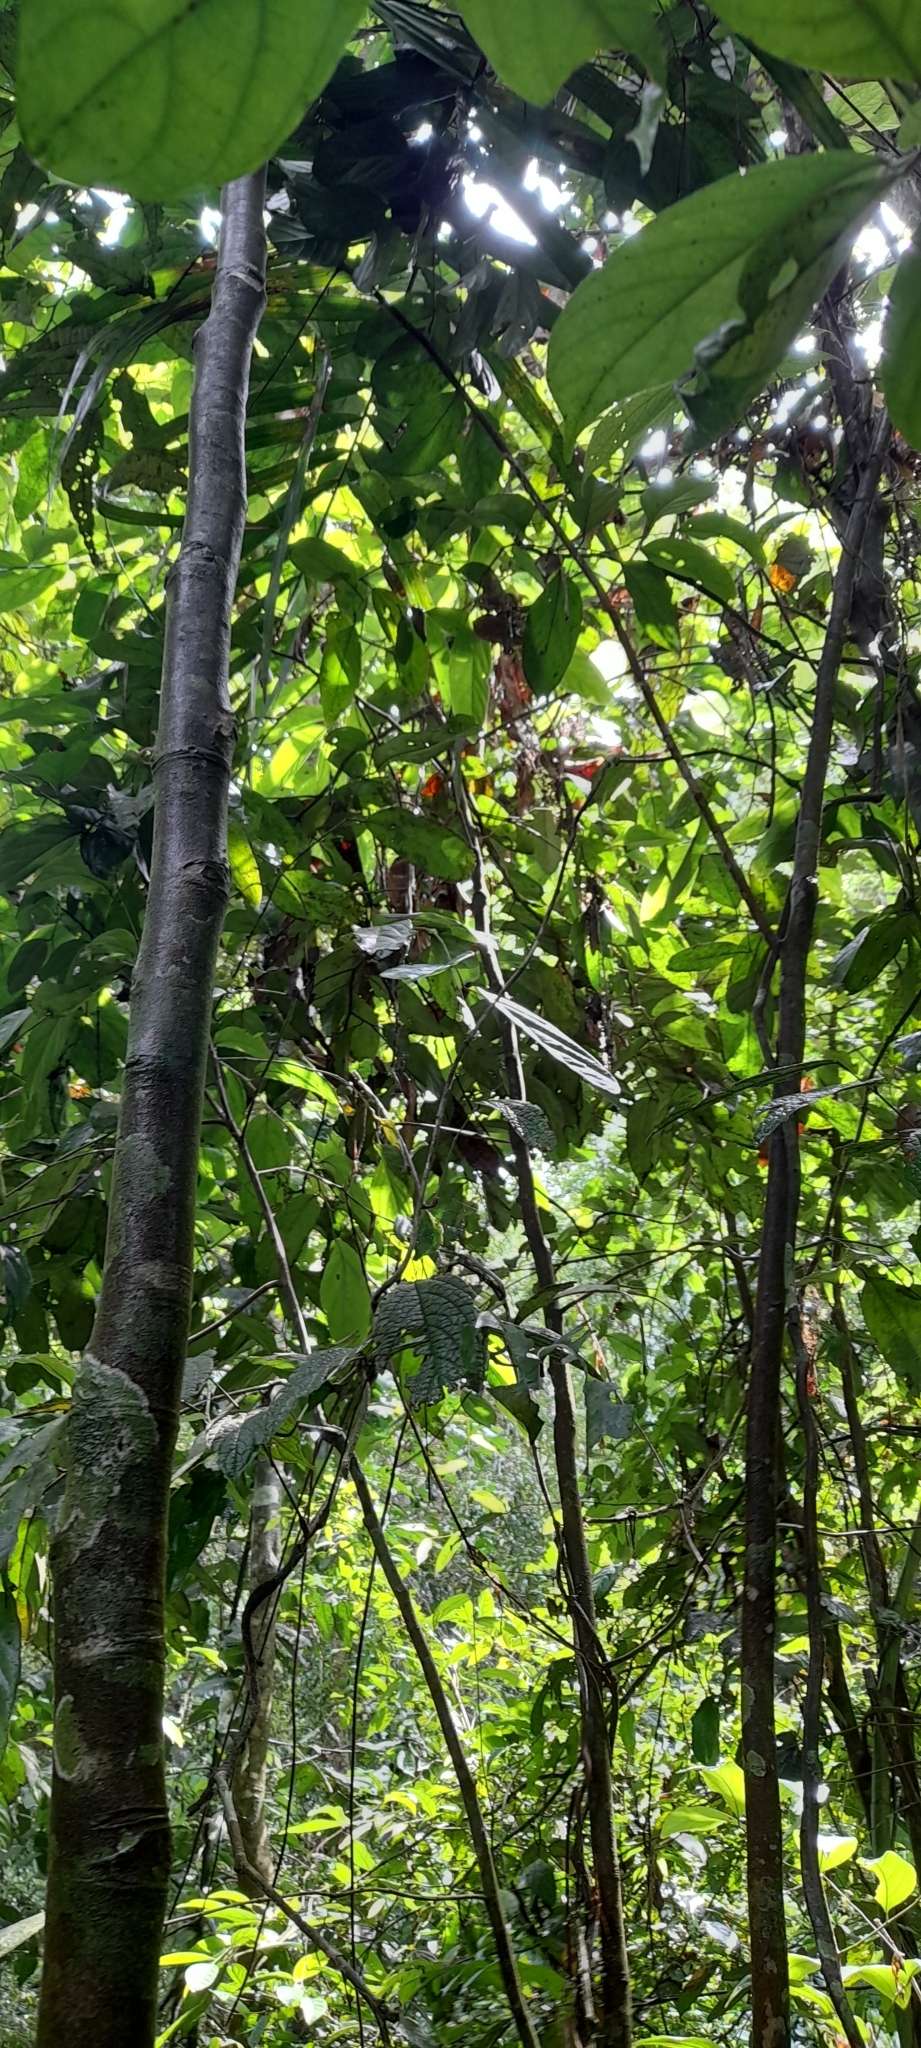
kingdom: Animalia
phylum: Chordata
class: Aves
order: Caprimulgiformes
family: Podargidae
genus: Batrachostomus
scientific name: Batrachostomus moniliger
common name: Sri lanka frogmouth
